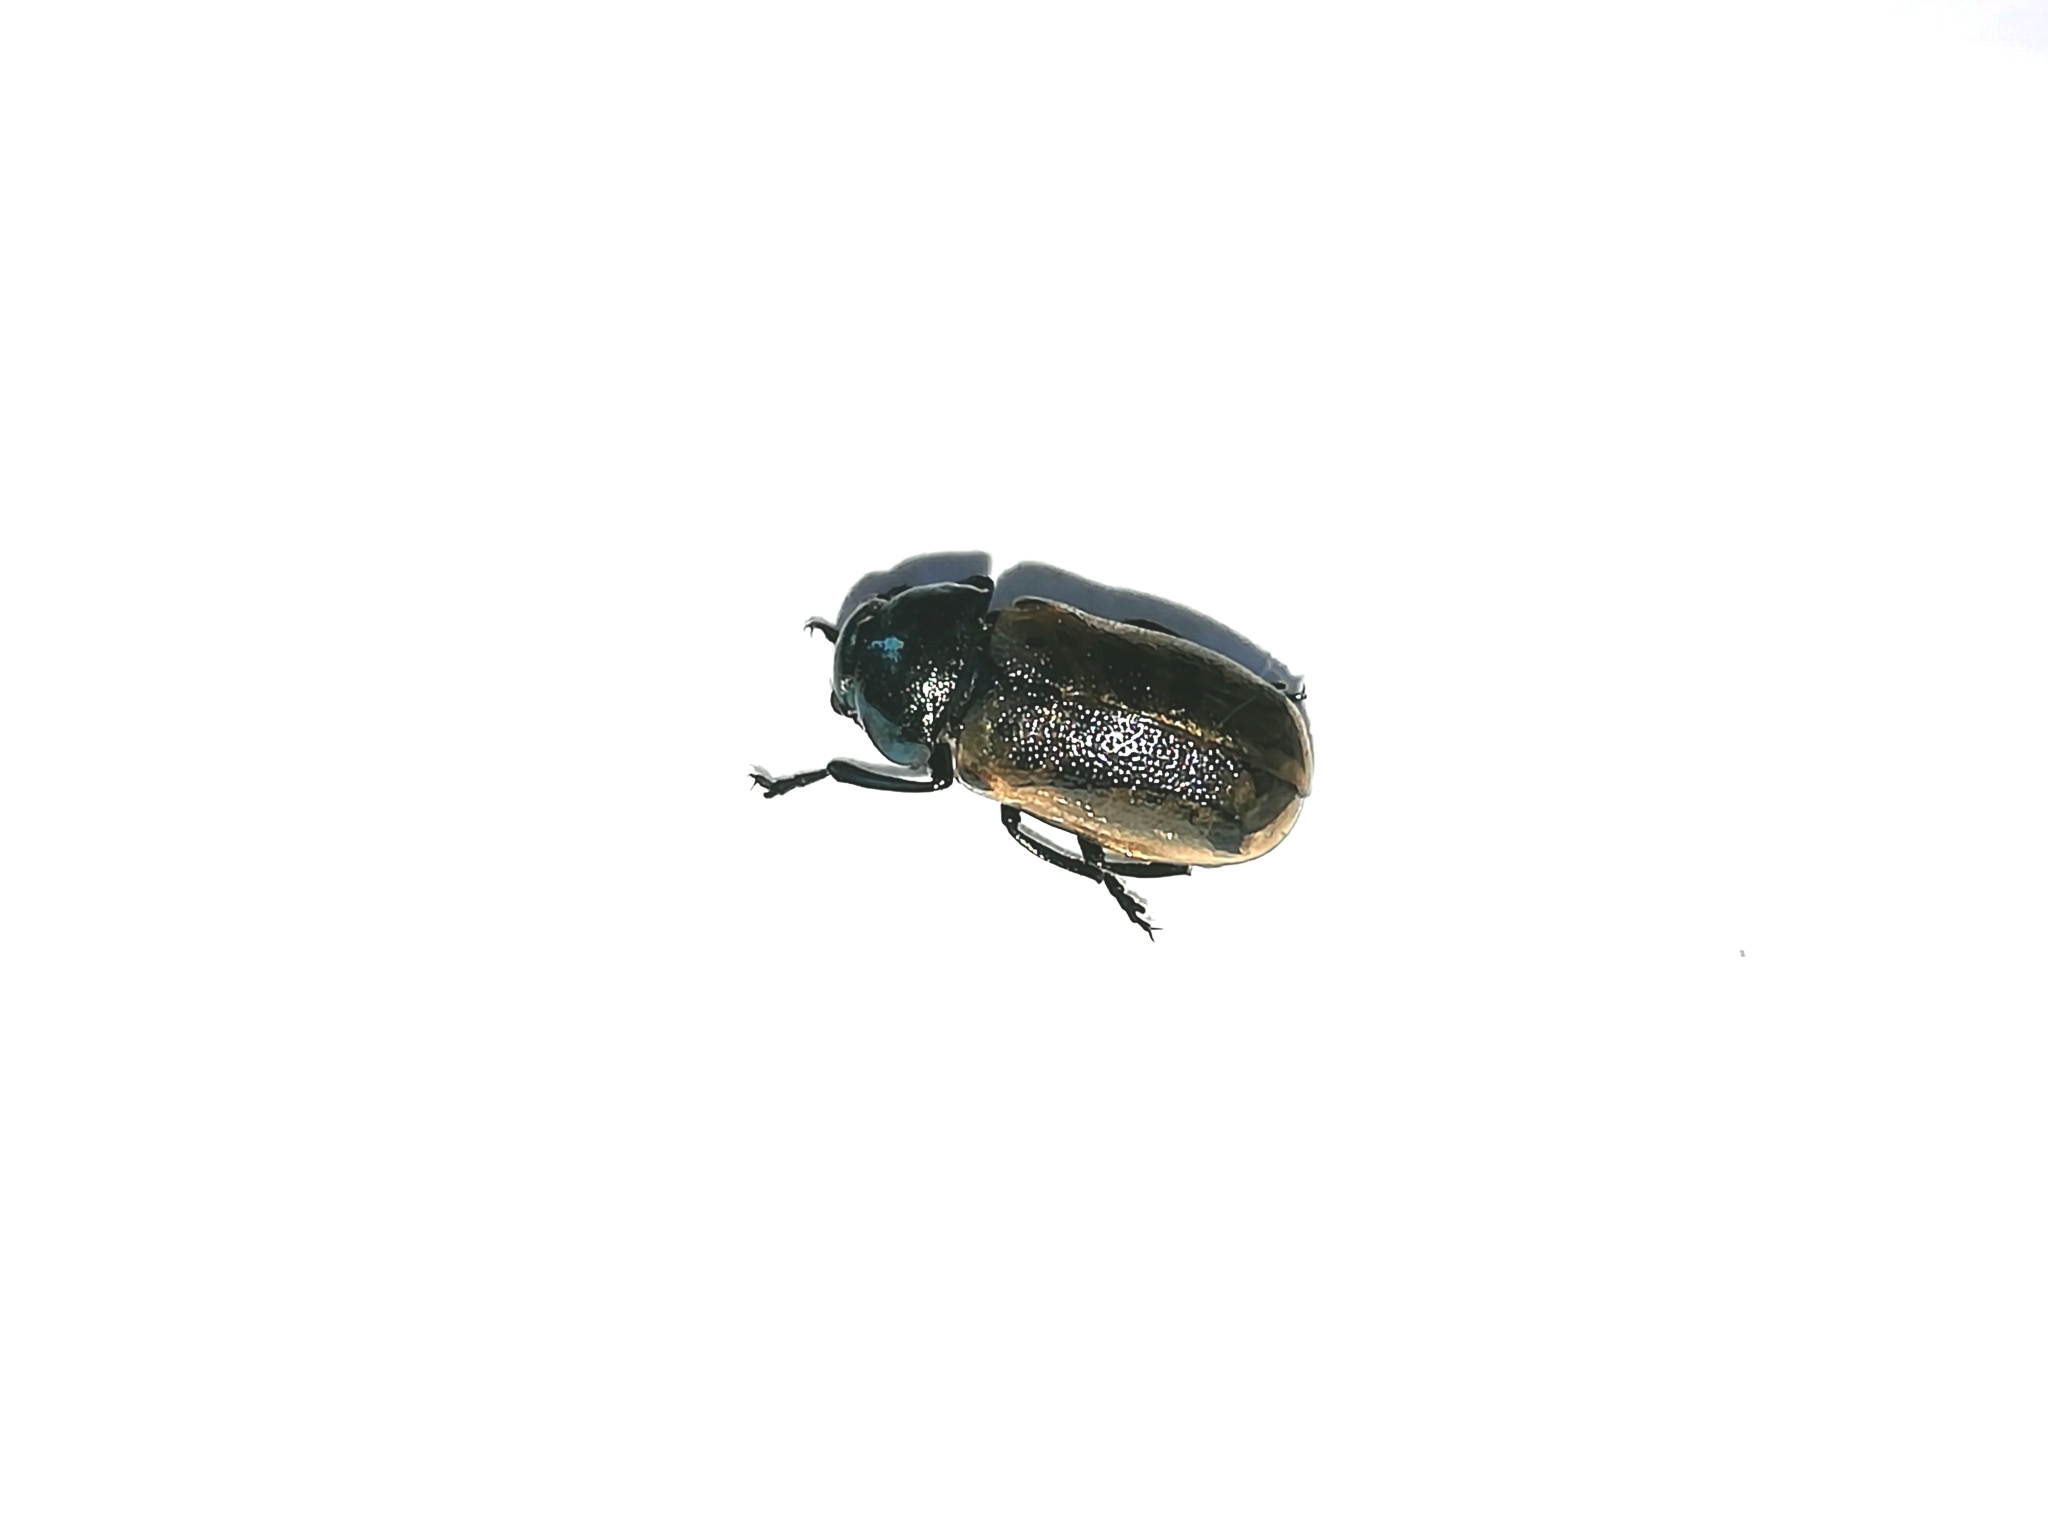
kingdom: Animalia
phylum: Arthropoda
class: Insecta
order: Coleoptera
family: Chrysomelidae
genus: Labidostomis
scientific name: Labidostomis longimana
